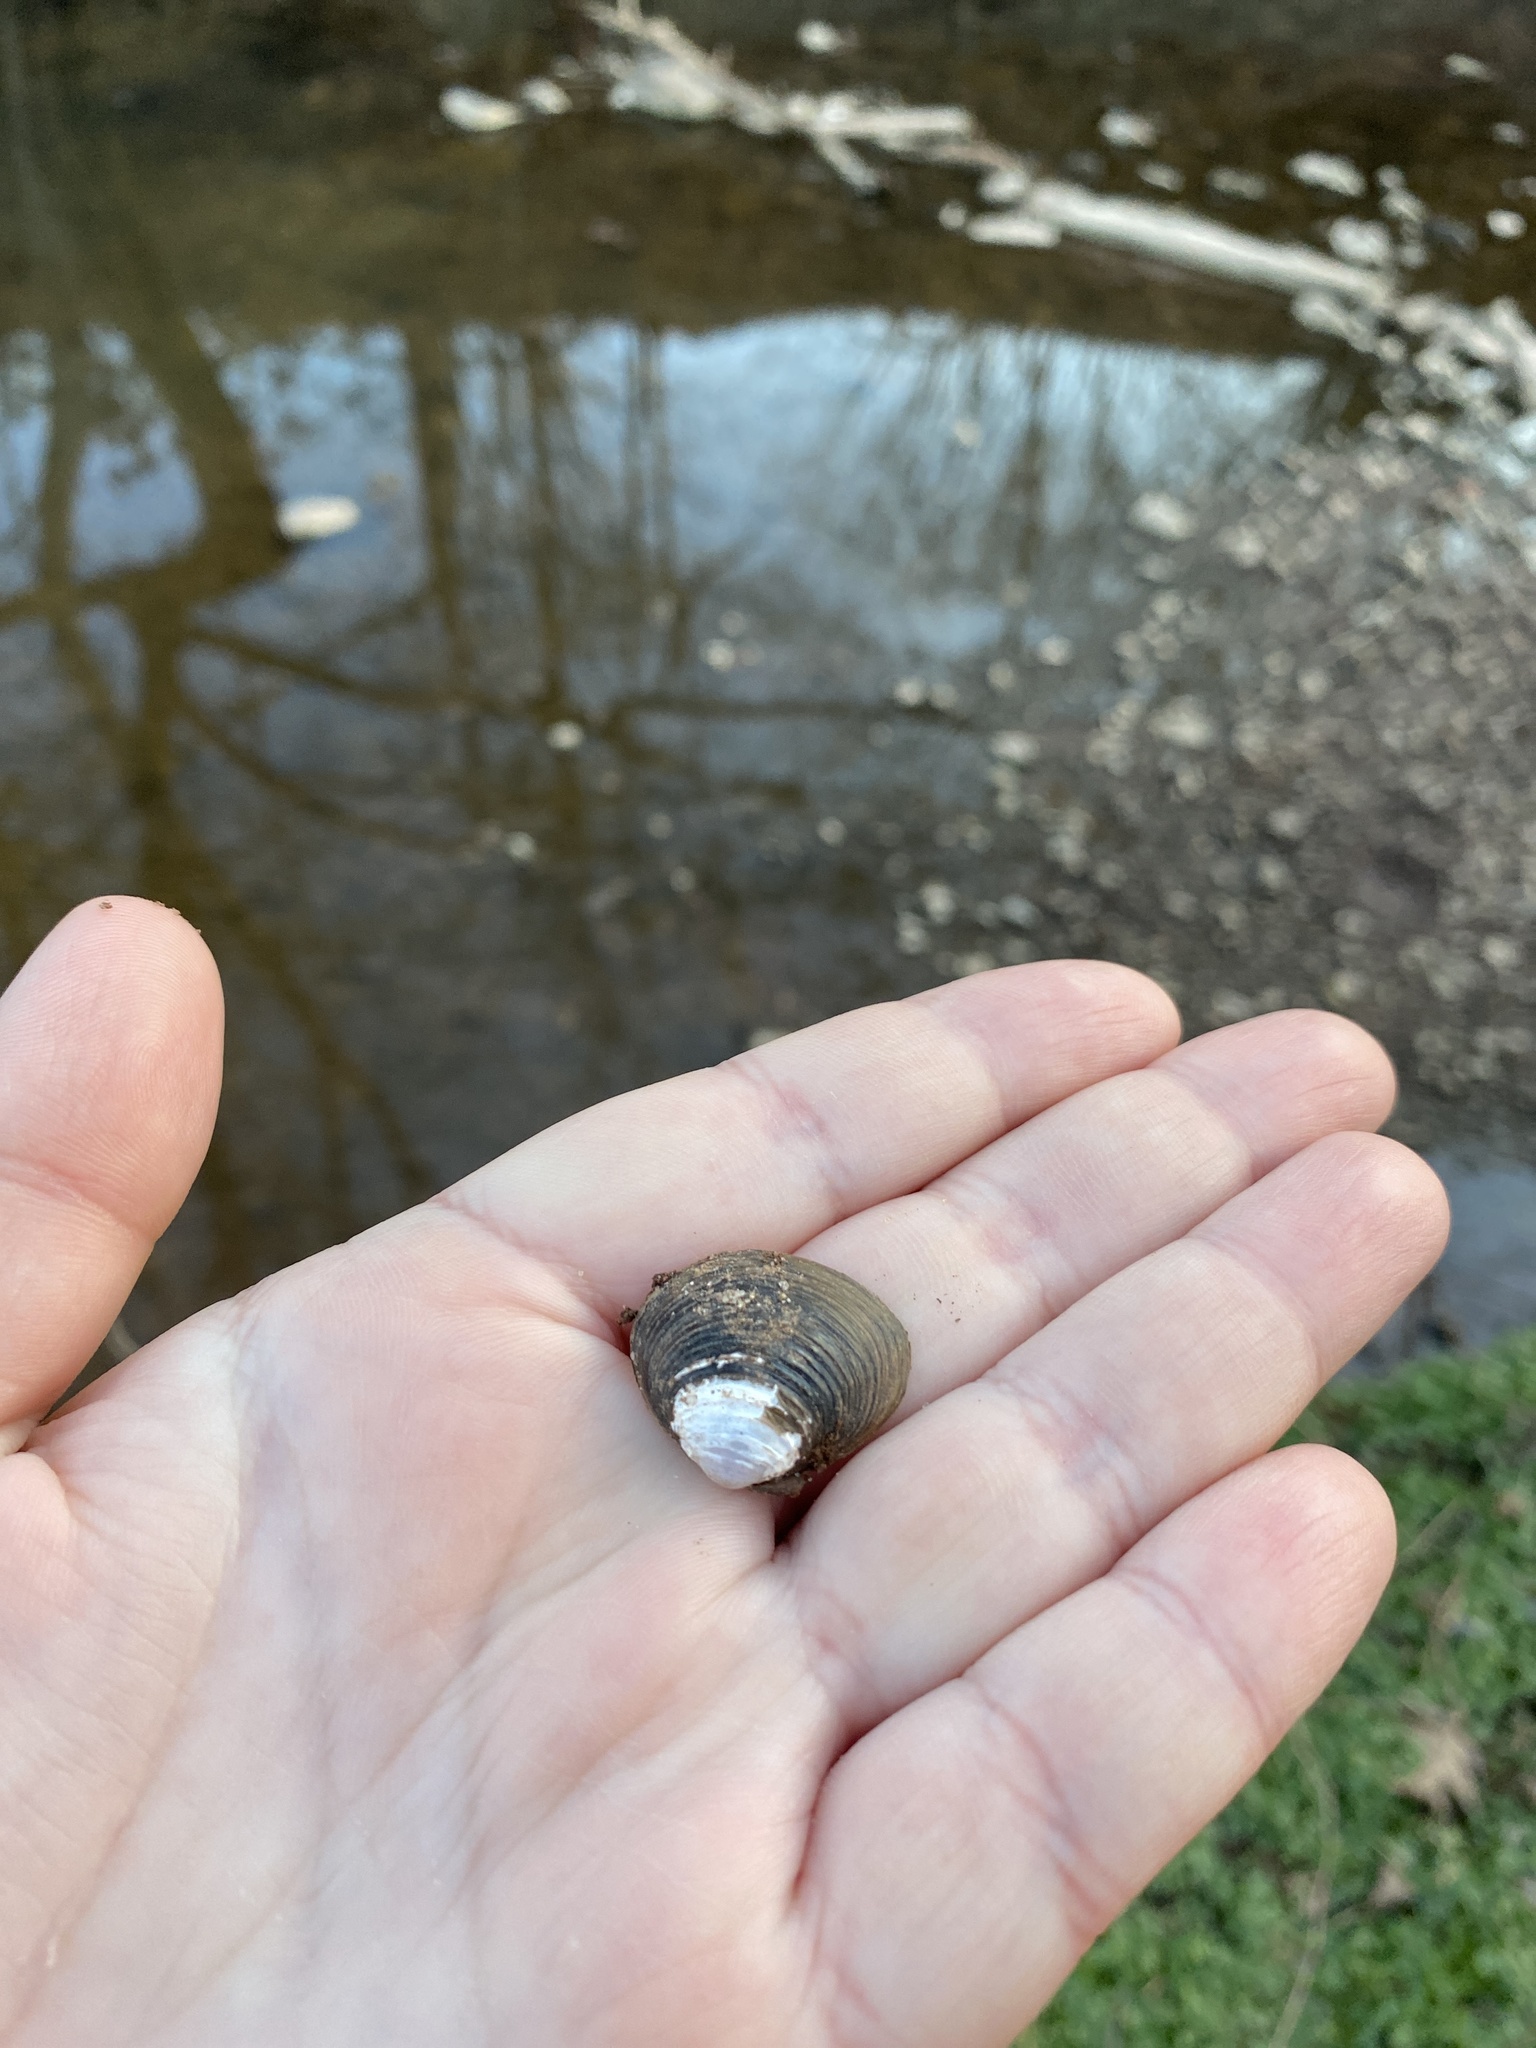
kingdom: Animalia
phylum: Mollusca
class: Bivalvia
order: Venerida
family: Cyrenidae
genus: Corbicula
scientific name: Corbicula fluminea
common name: Asian clam
